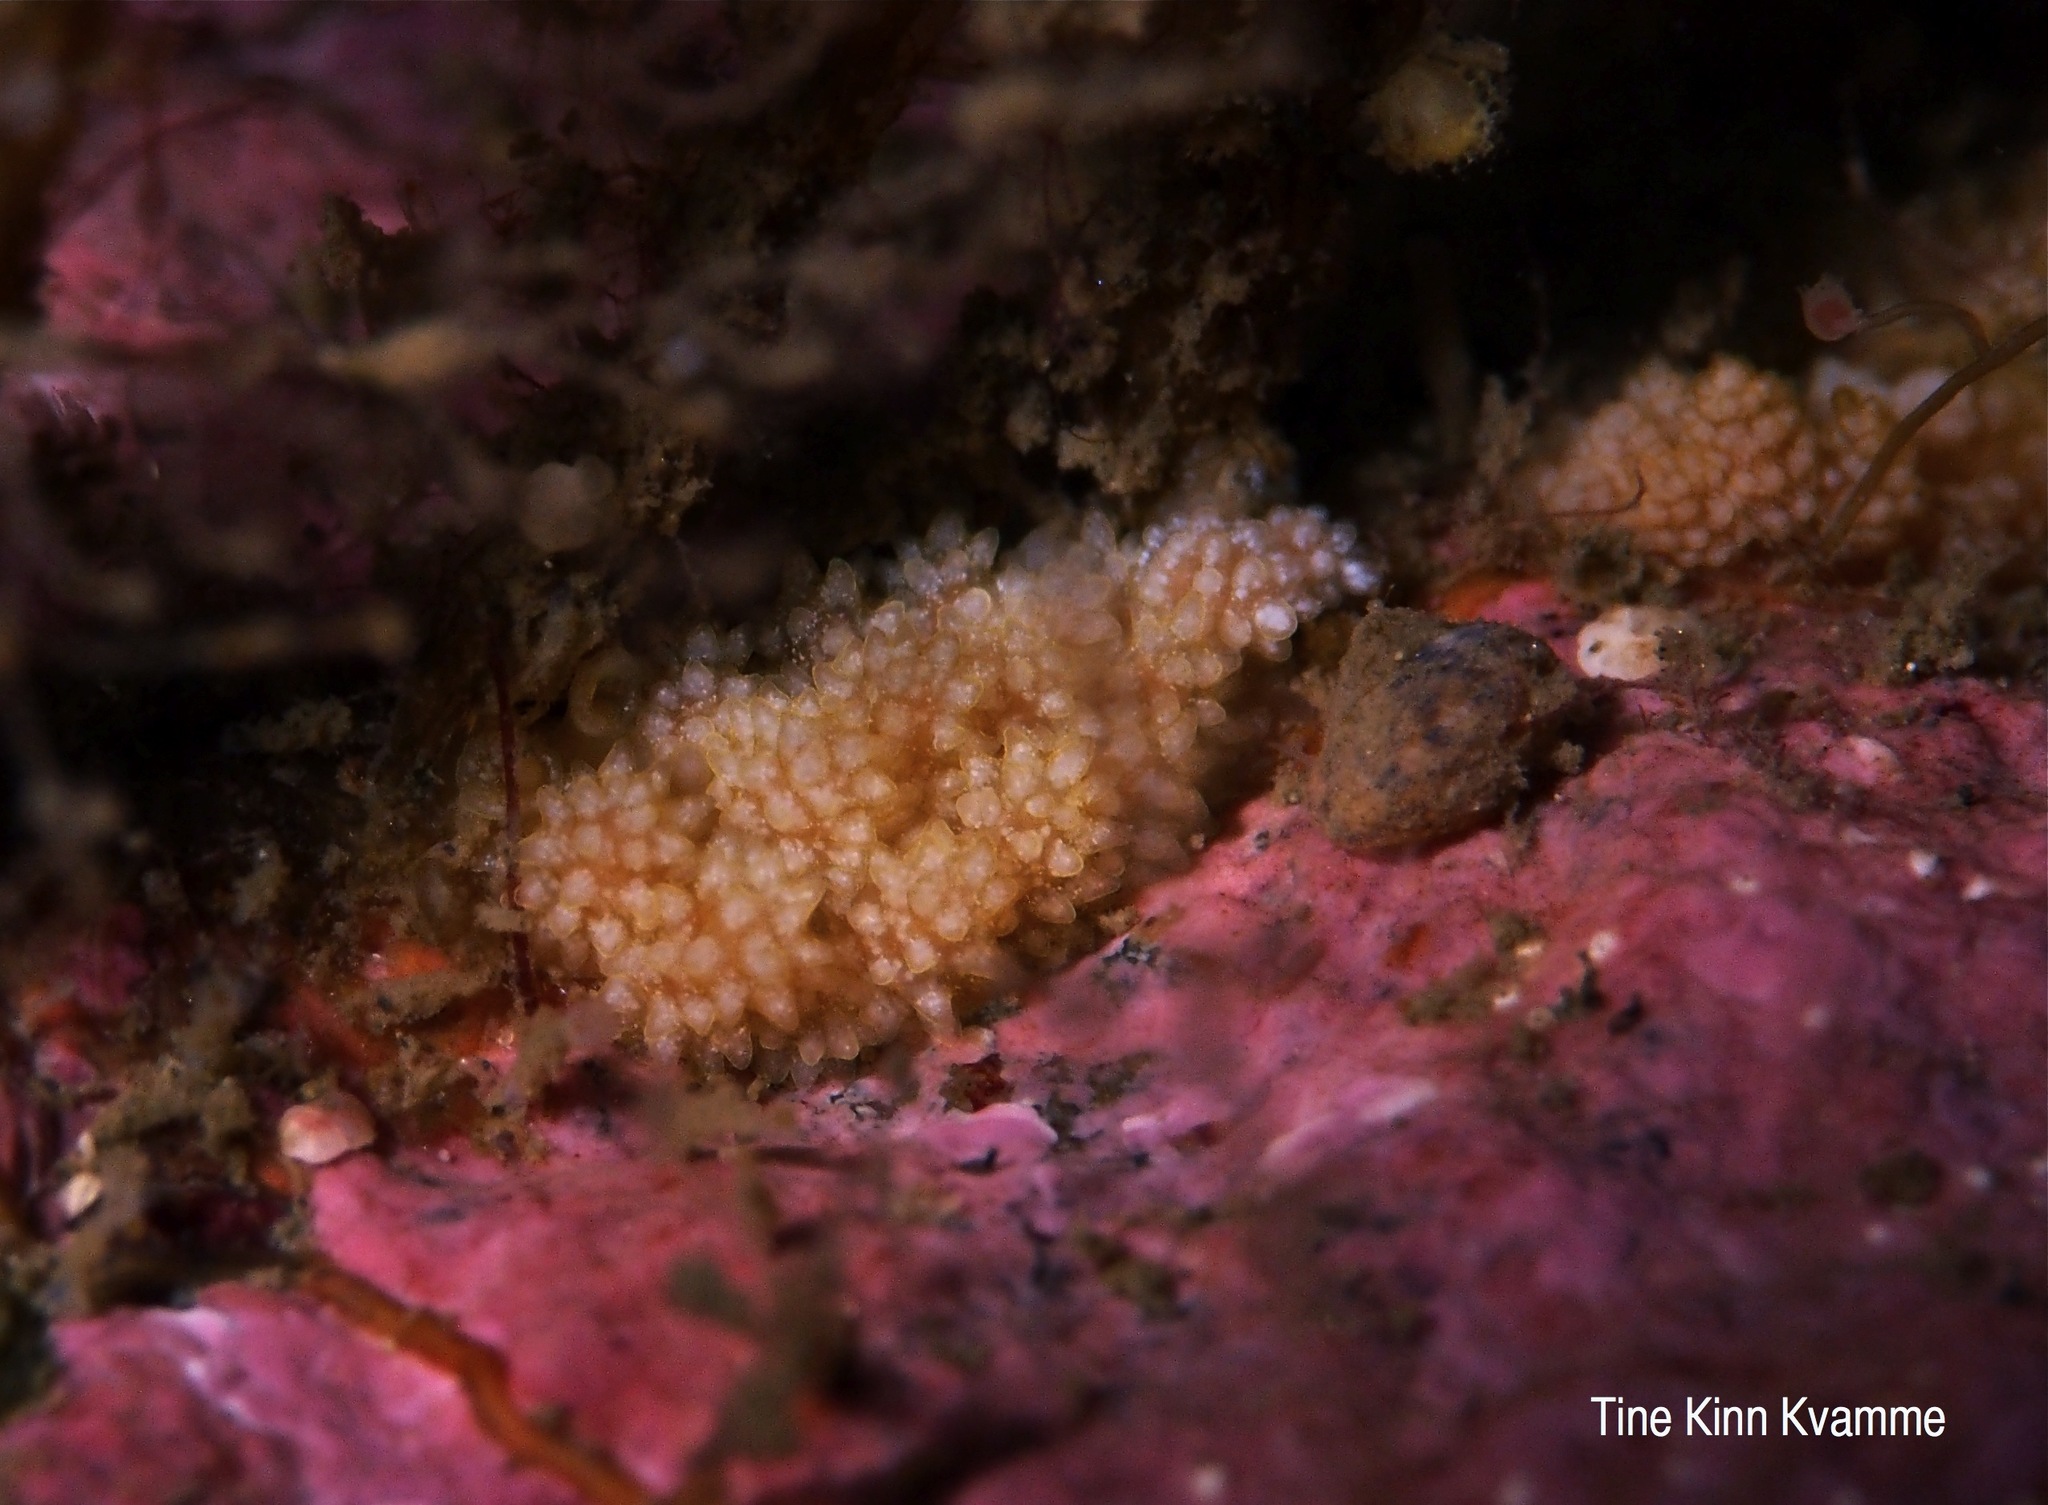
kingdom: Animalia
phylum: Mollusca
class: Gastropoda
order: Nudibranchia
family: Dotidae
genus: Doto
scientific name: Doto fragilis
